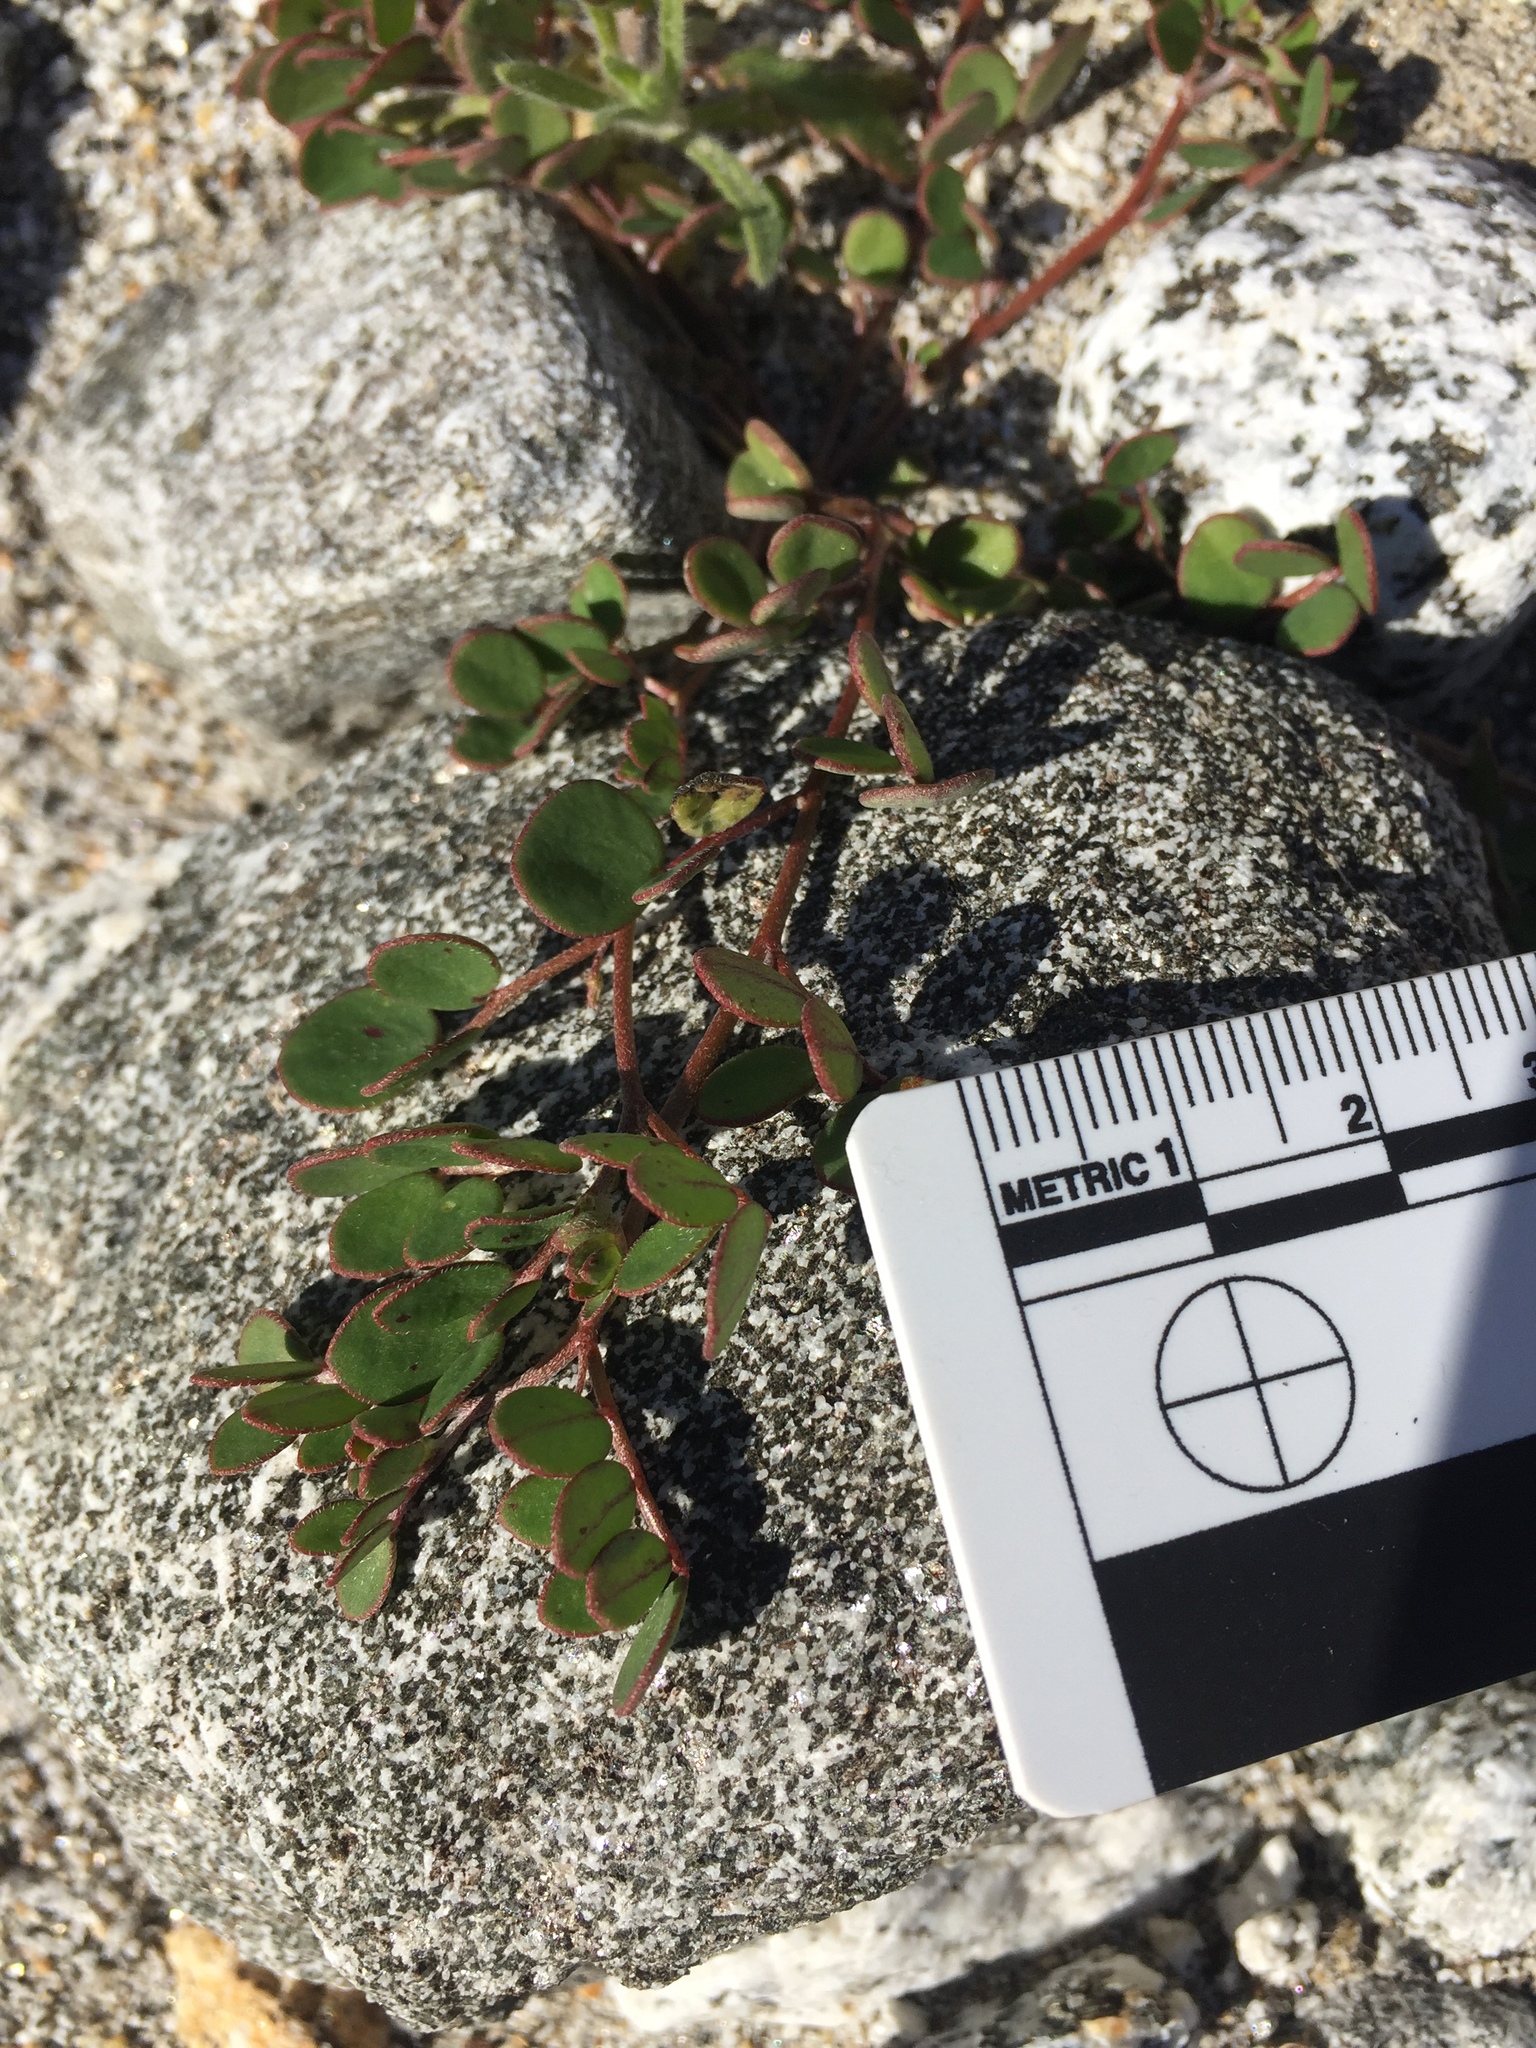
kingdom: Plantae
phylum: Tracheophyta
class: Magnoliopsida
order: Fabales
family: Fabaceae
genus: Acmispon
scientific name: Acmispon maritimus
